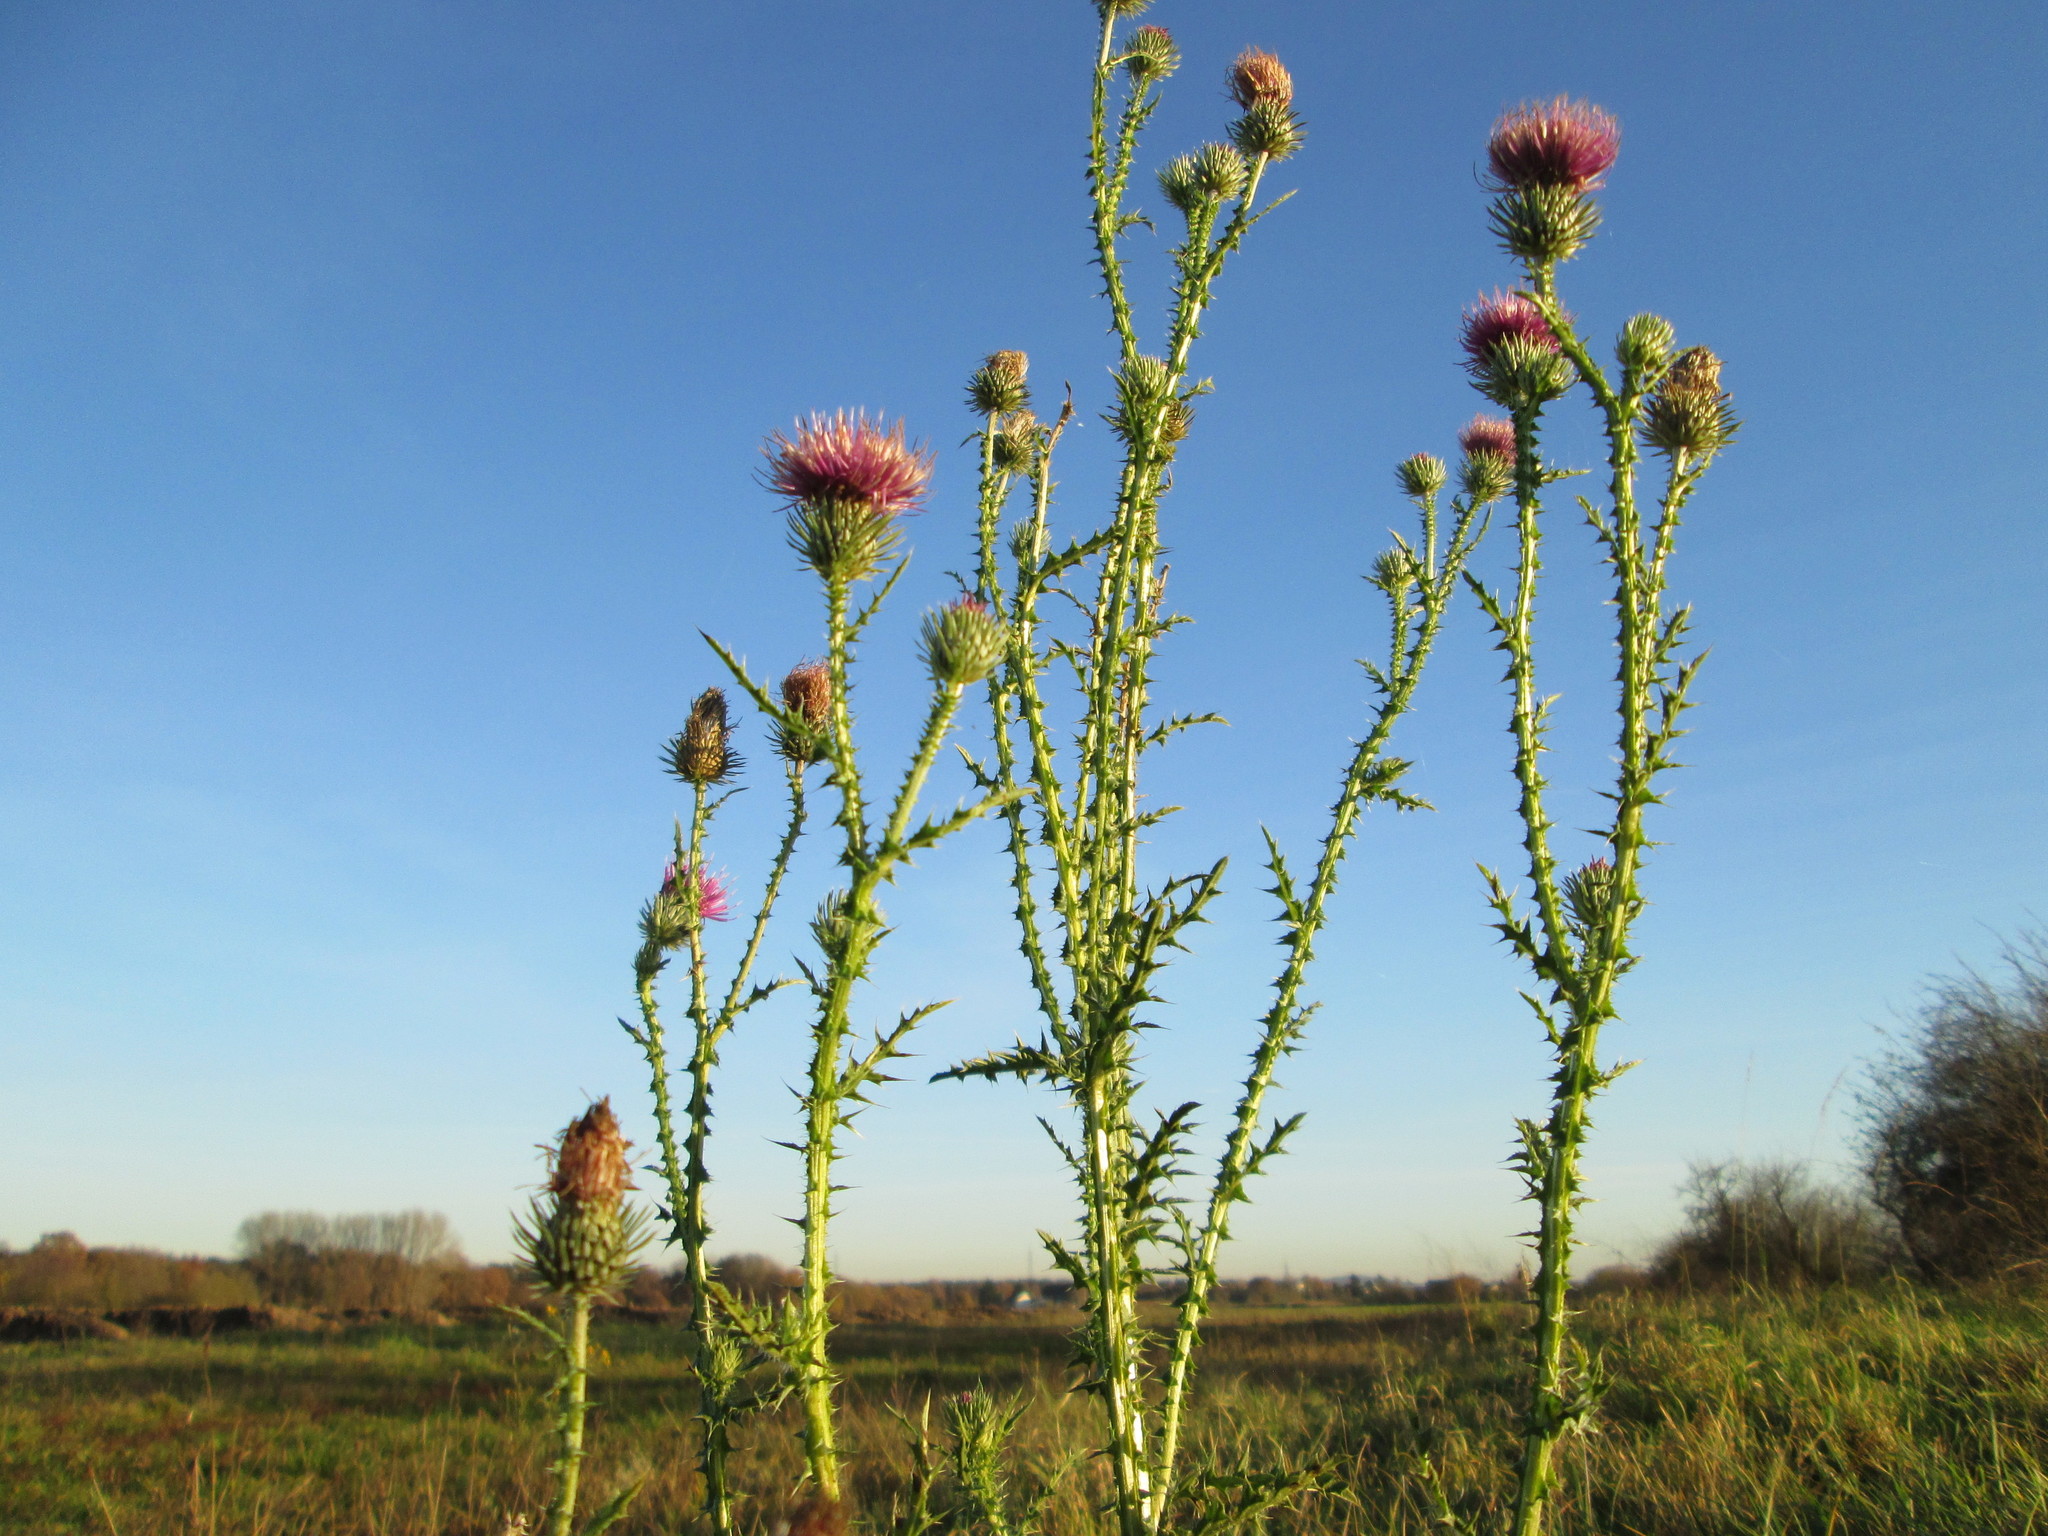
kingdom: Plantae
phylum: Tracheophyta
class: Magnoliopsida
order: Asterales
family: Asteraceae
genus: Carduus
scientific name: Carduus acanthoides
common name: Plumeless thistle
